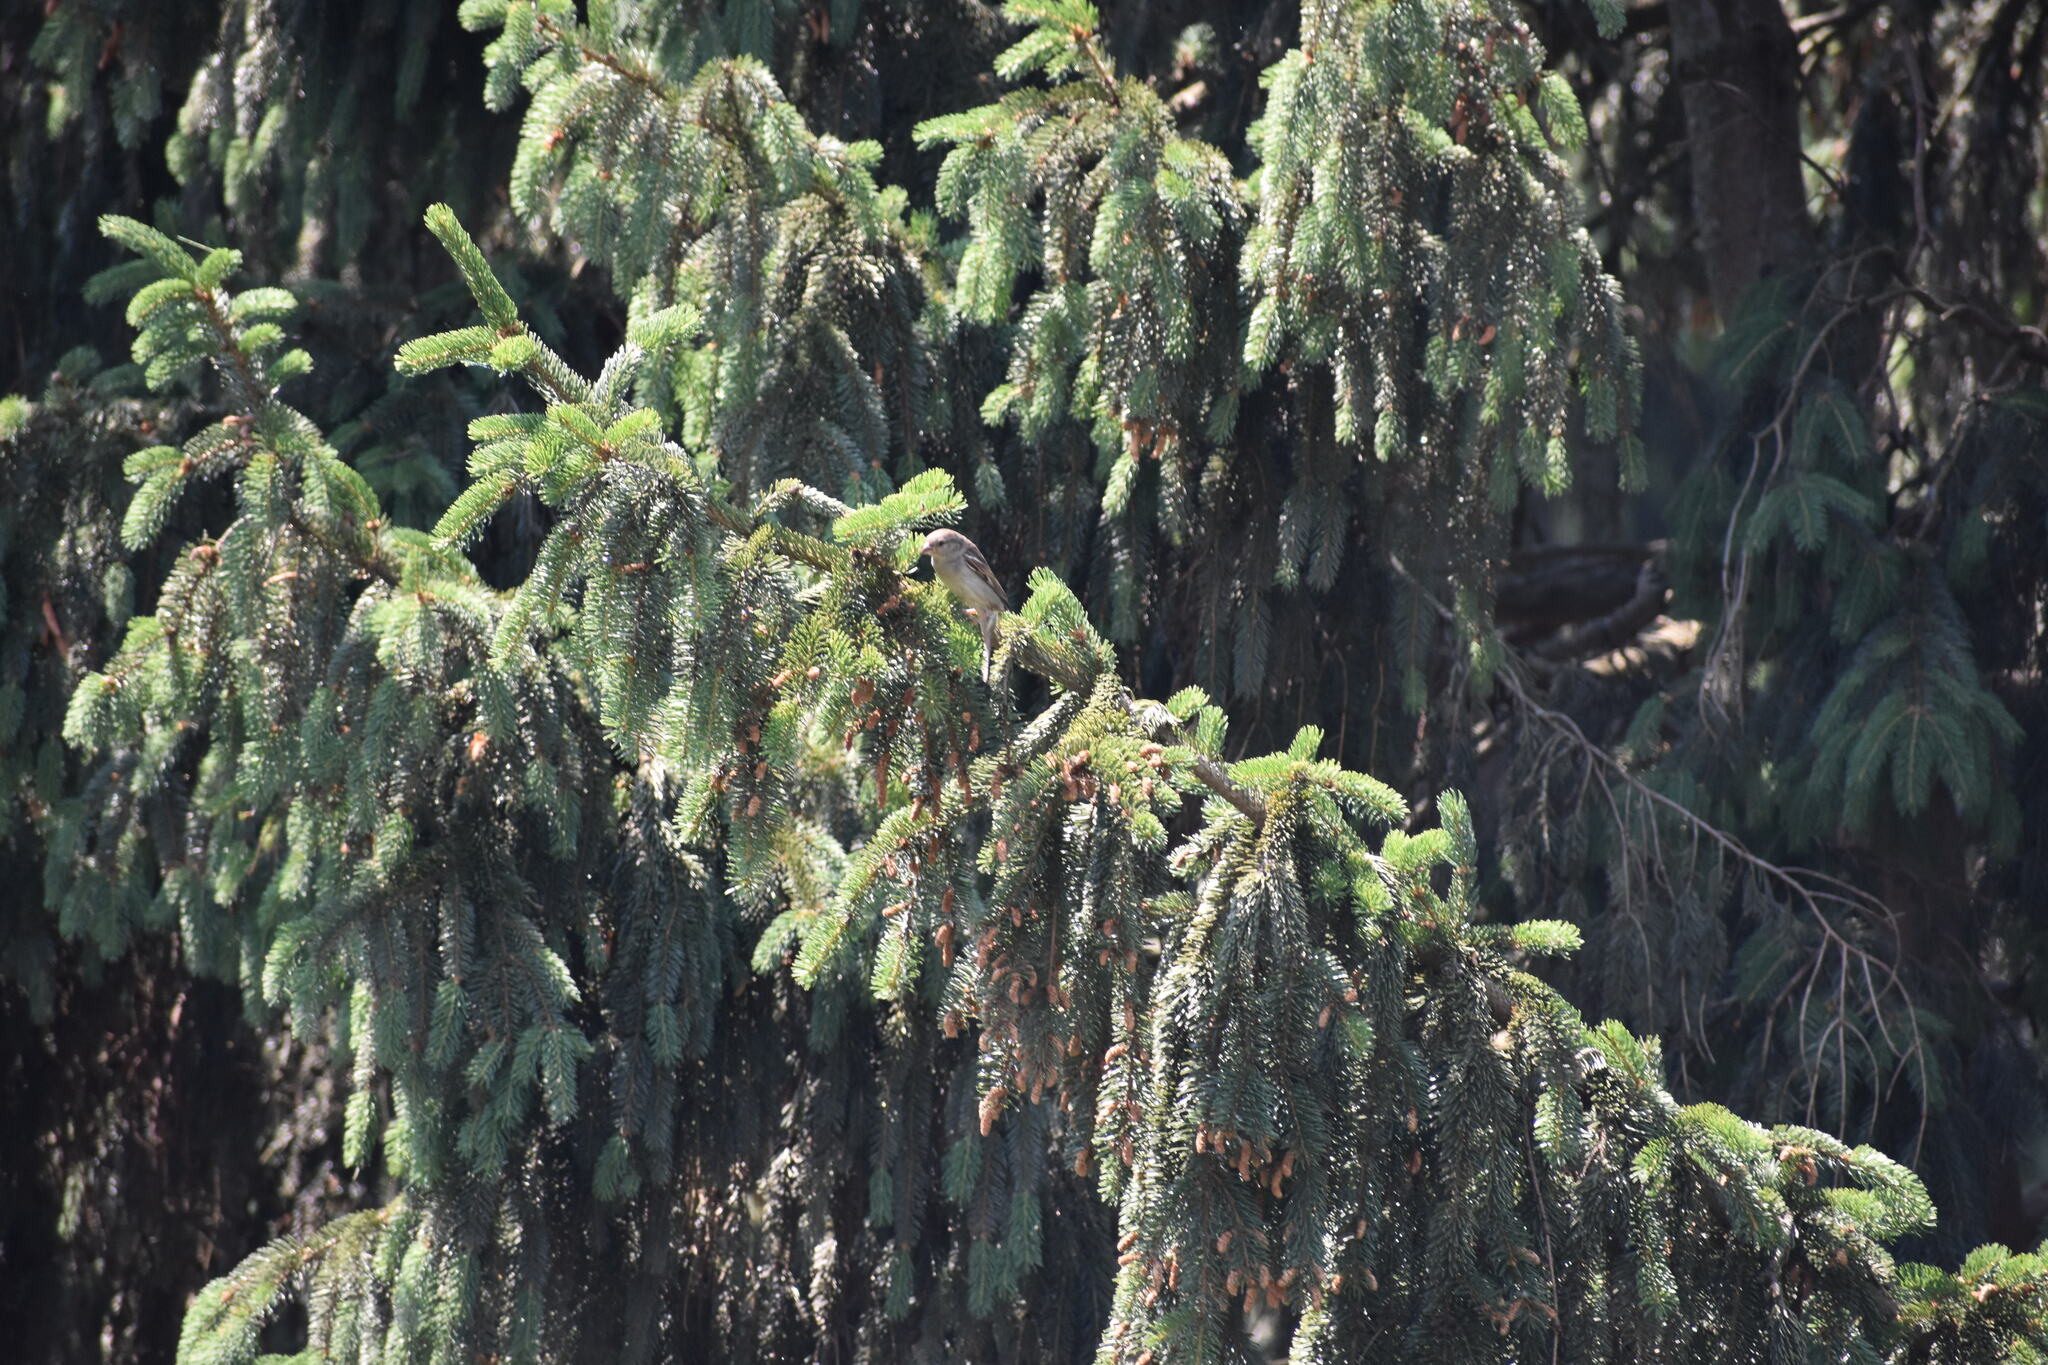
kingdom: Animalia
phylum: Chordata
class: Aves
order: Passeriformes
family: Passeridae
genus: Passer
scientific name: Passer domesticus
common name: House sparrow
